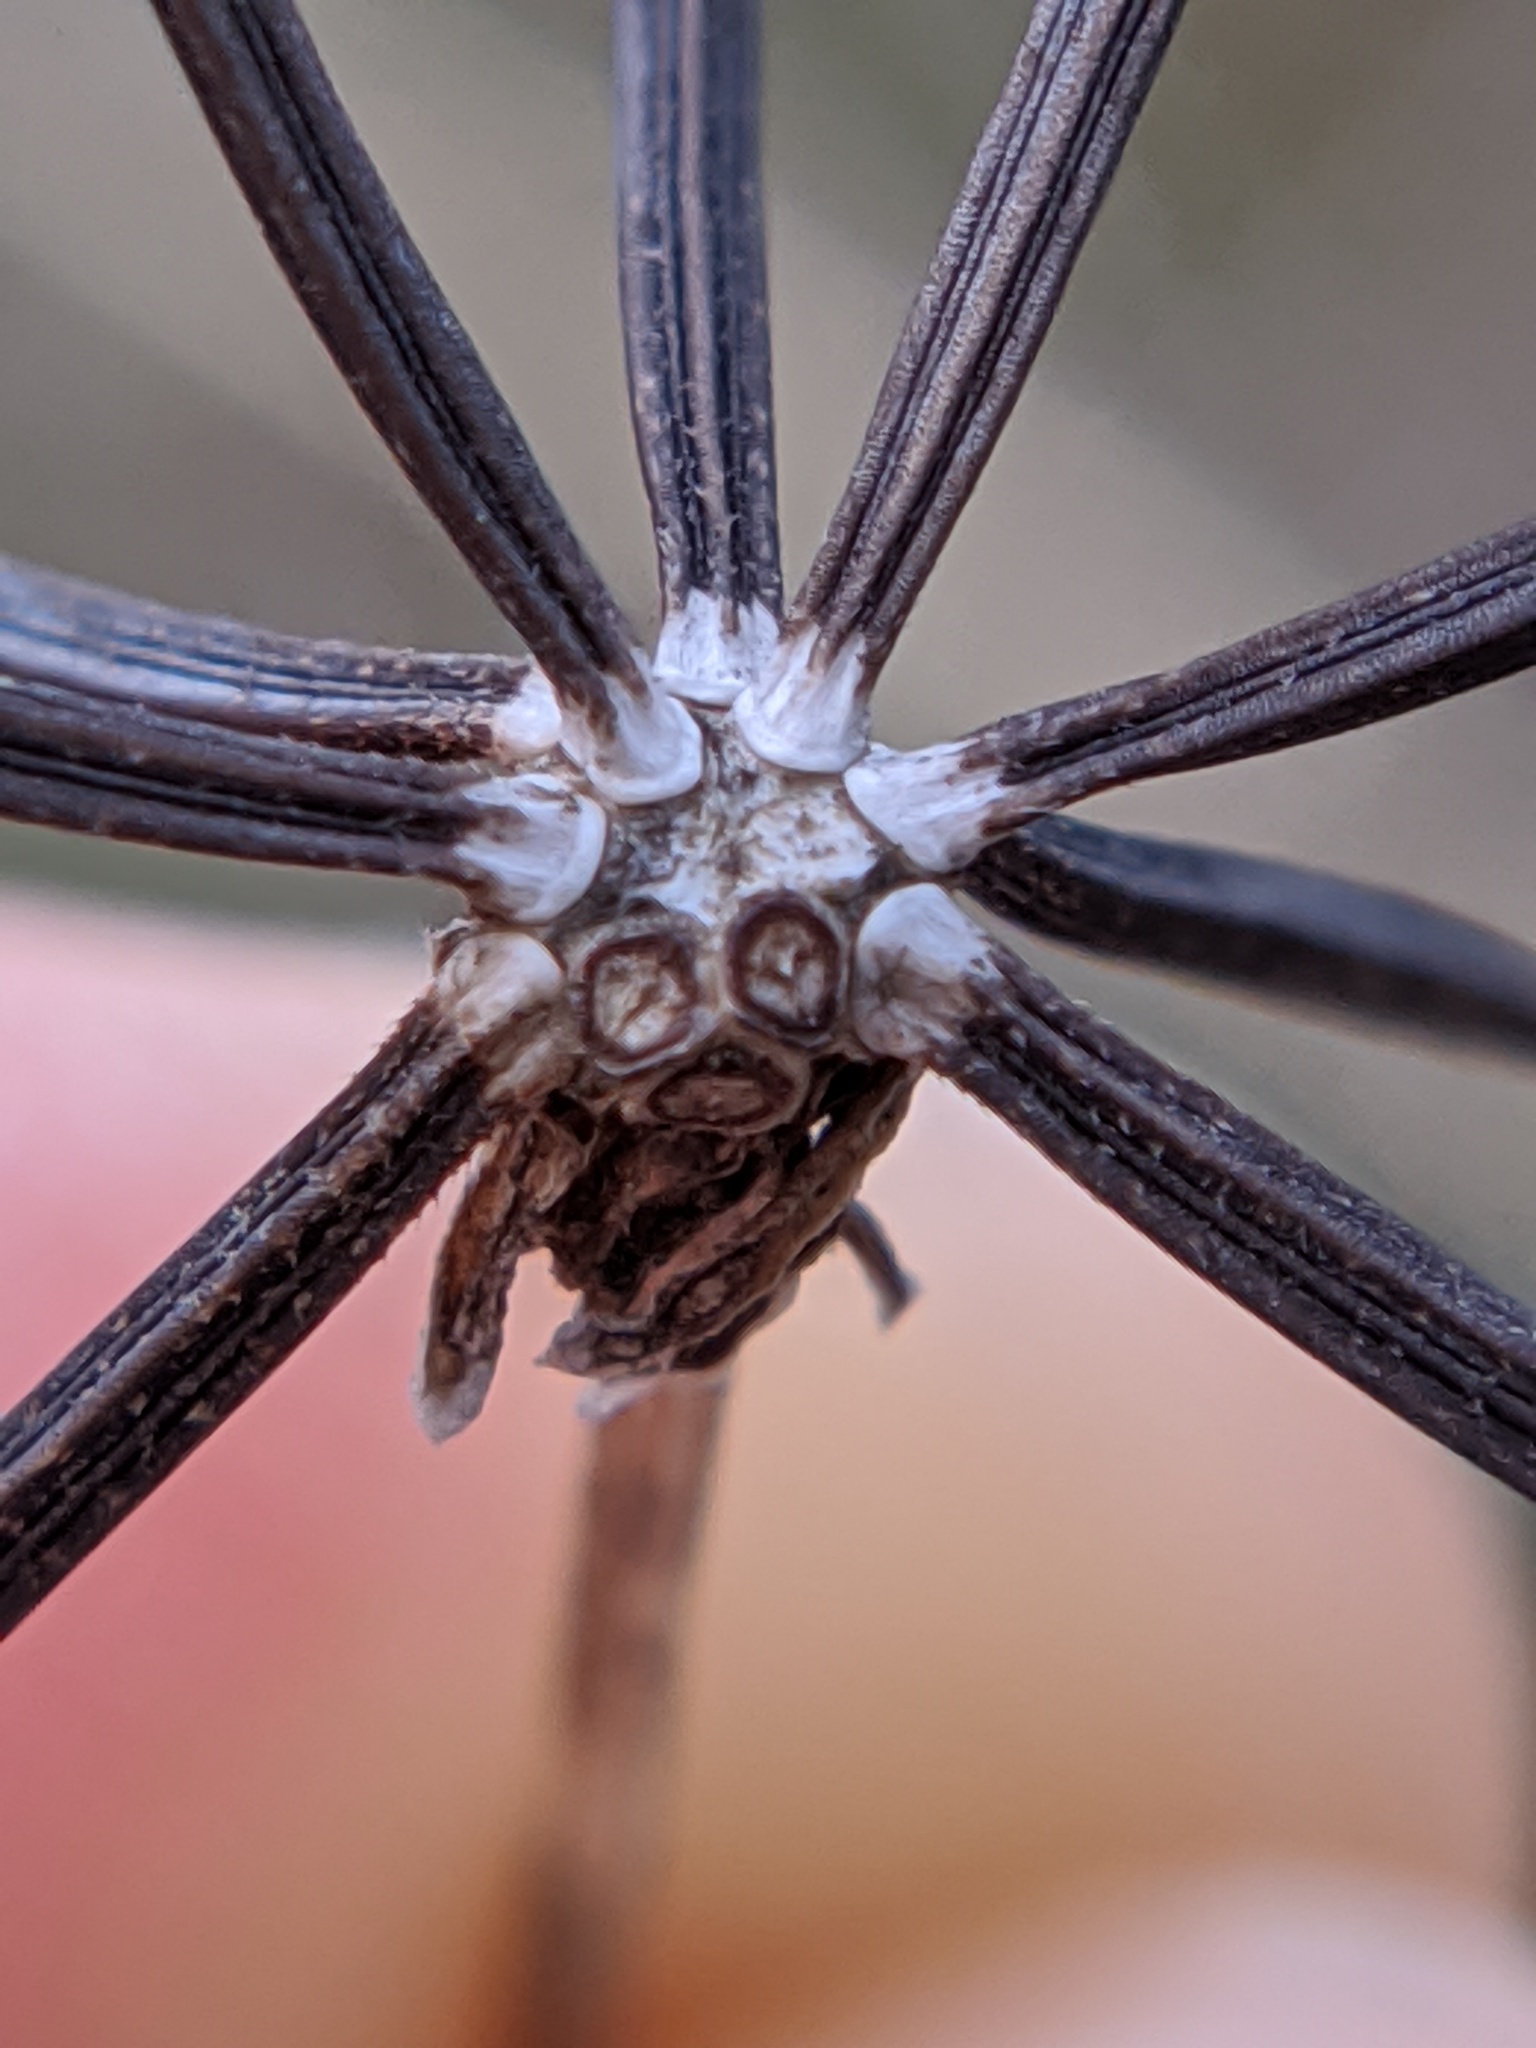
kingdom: Plantae
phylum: Tracheophyta
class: Magnoliopsida
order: Asterales
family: Asteraceae
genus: Bidens
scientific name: Bidens bipinnata
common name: Spanish-needles
